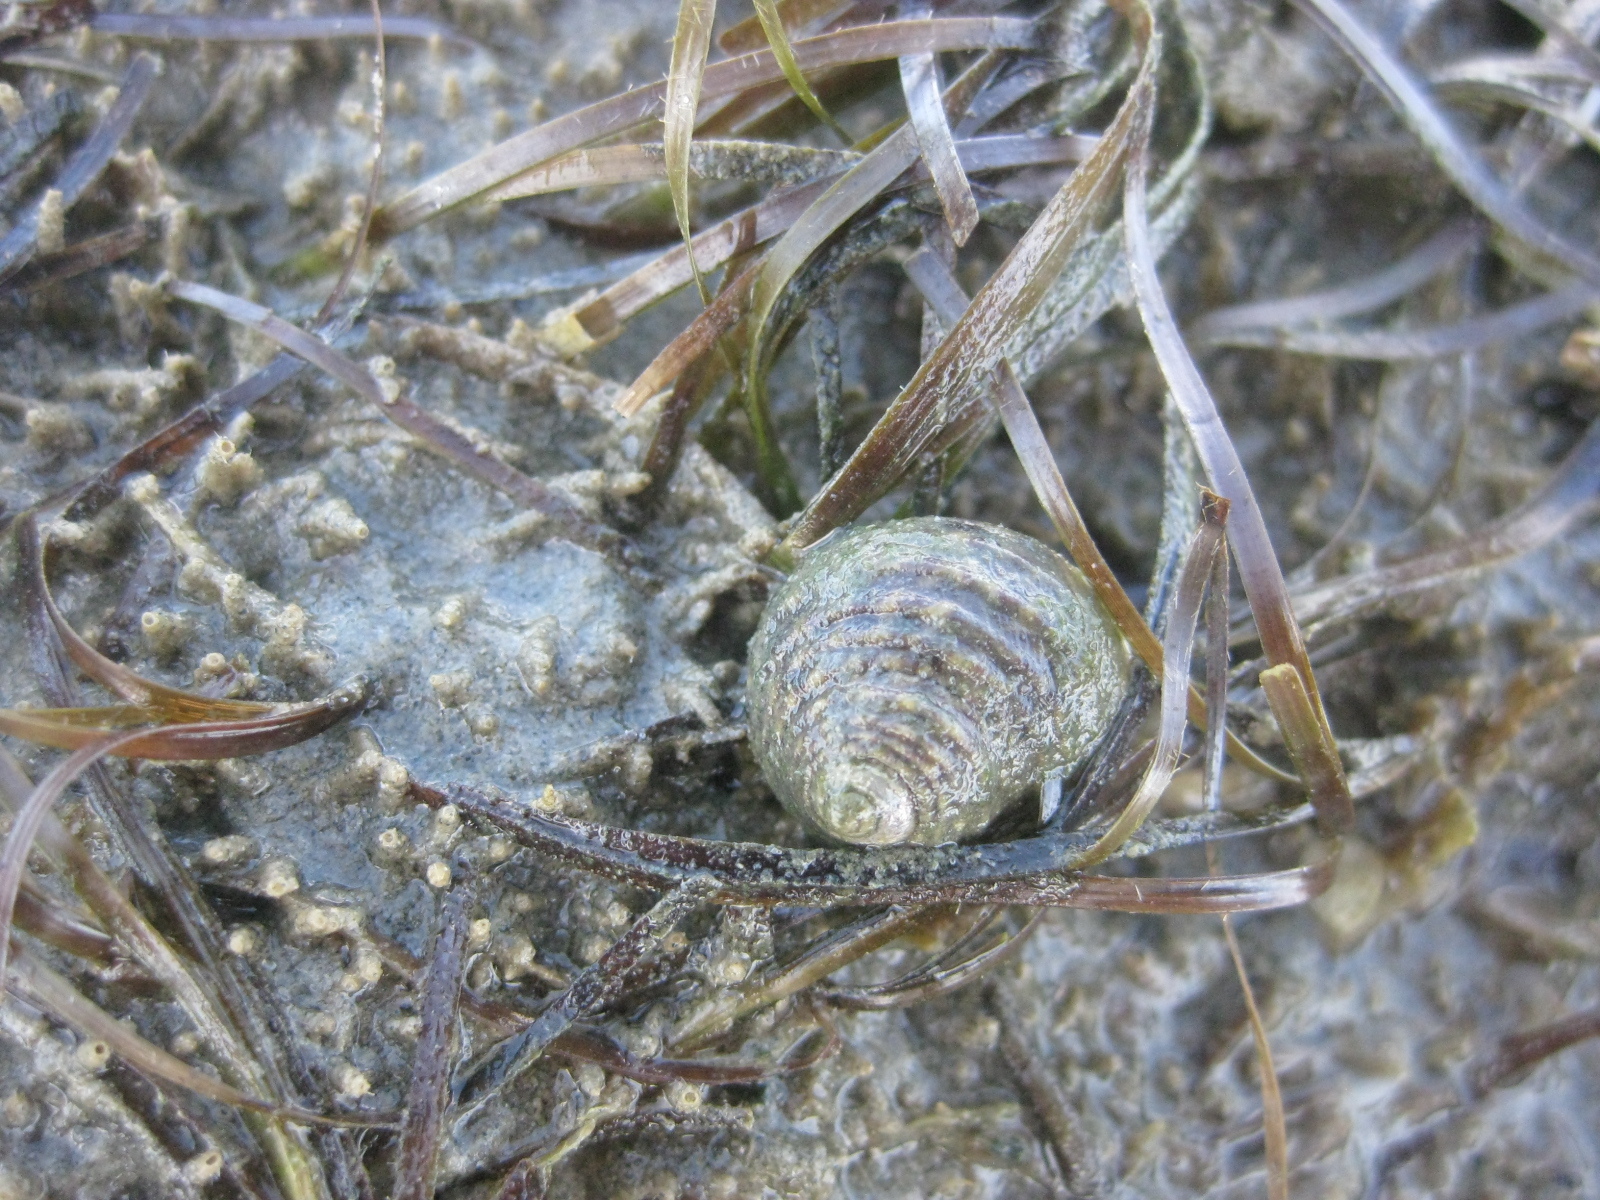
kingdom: Animalia
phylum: Mollusca
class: Gastropoda
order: Trochida
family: Trochidae
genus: Diloma
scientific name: Diloma subrostratum
